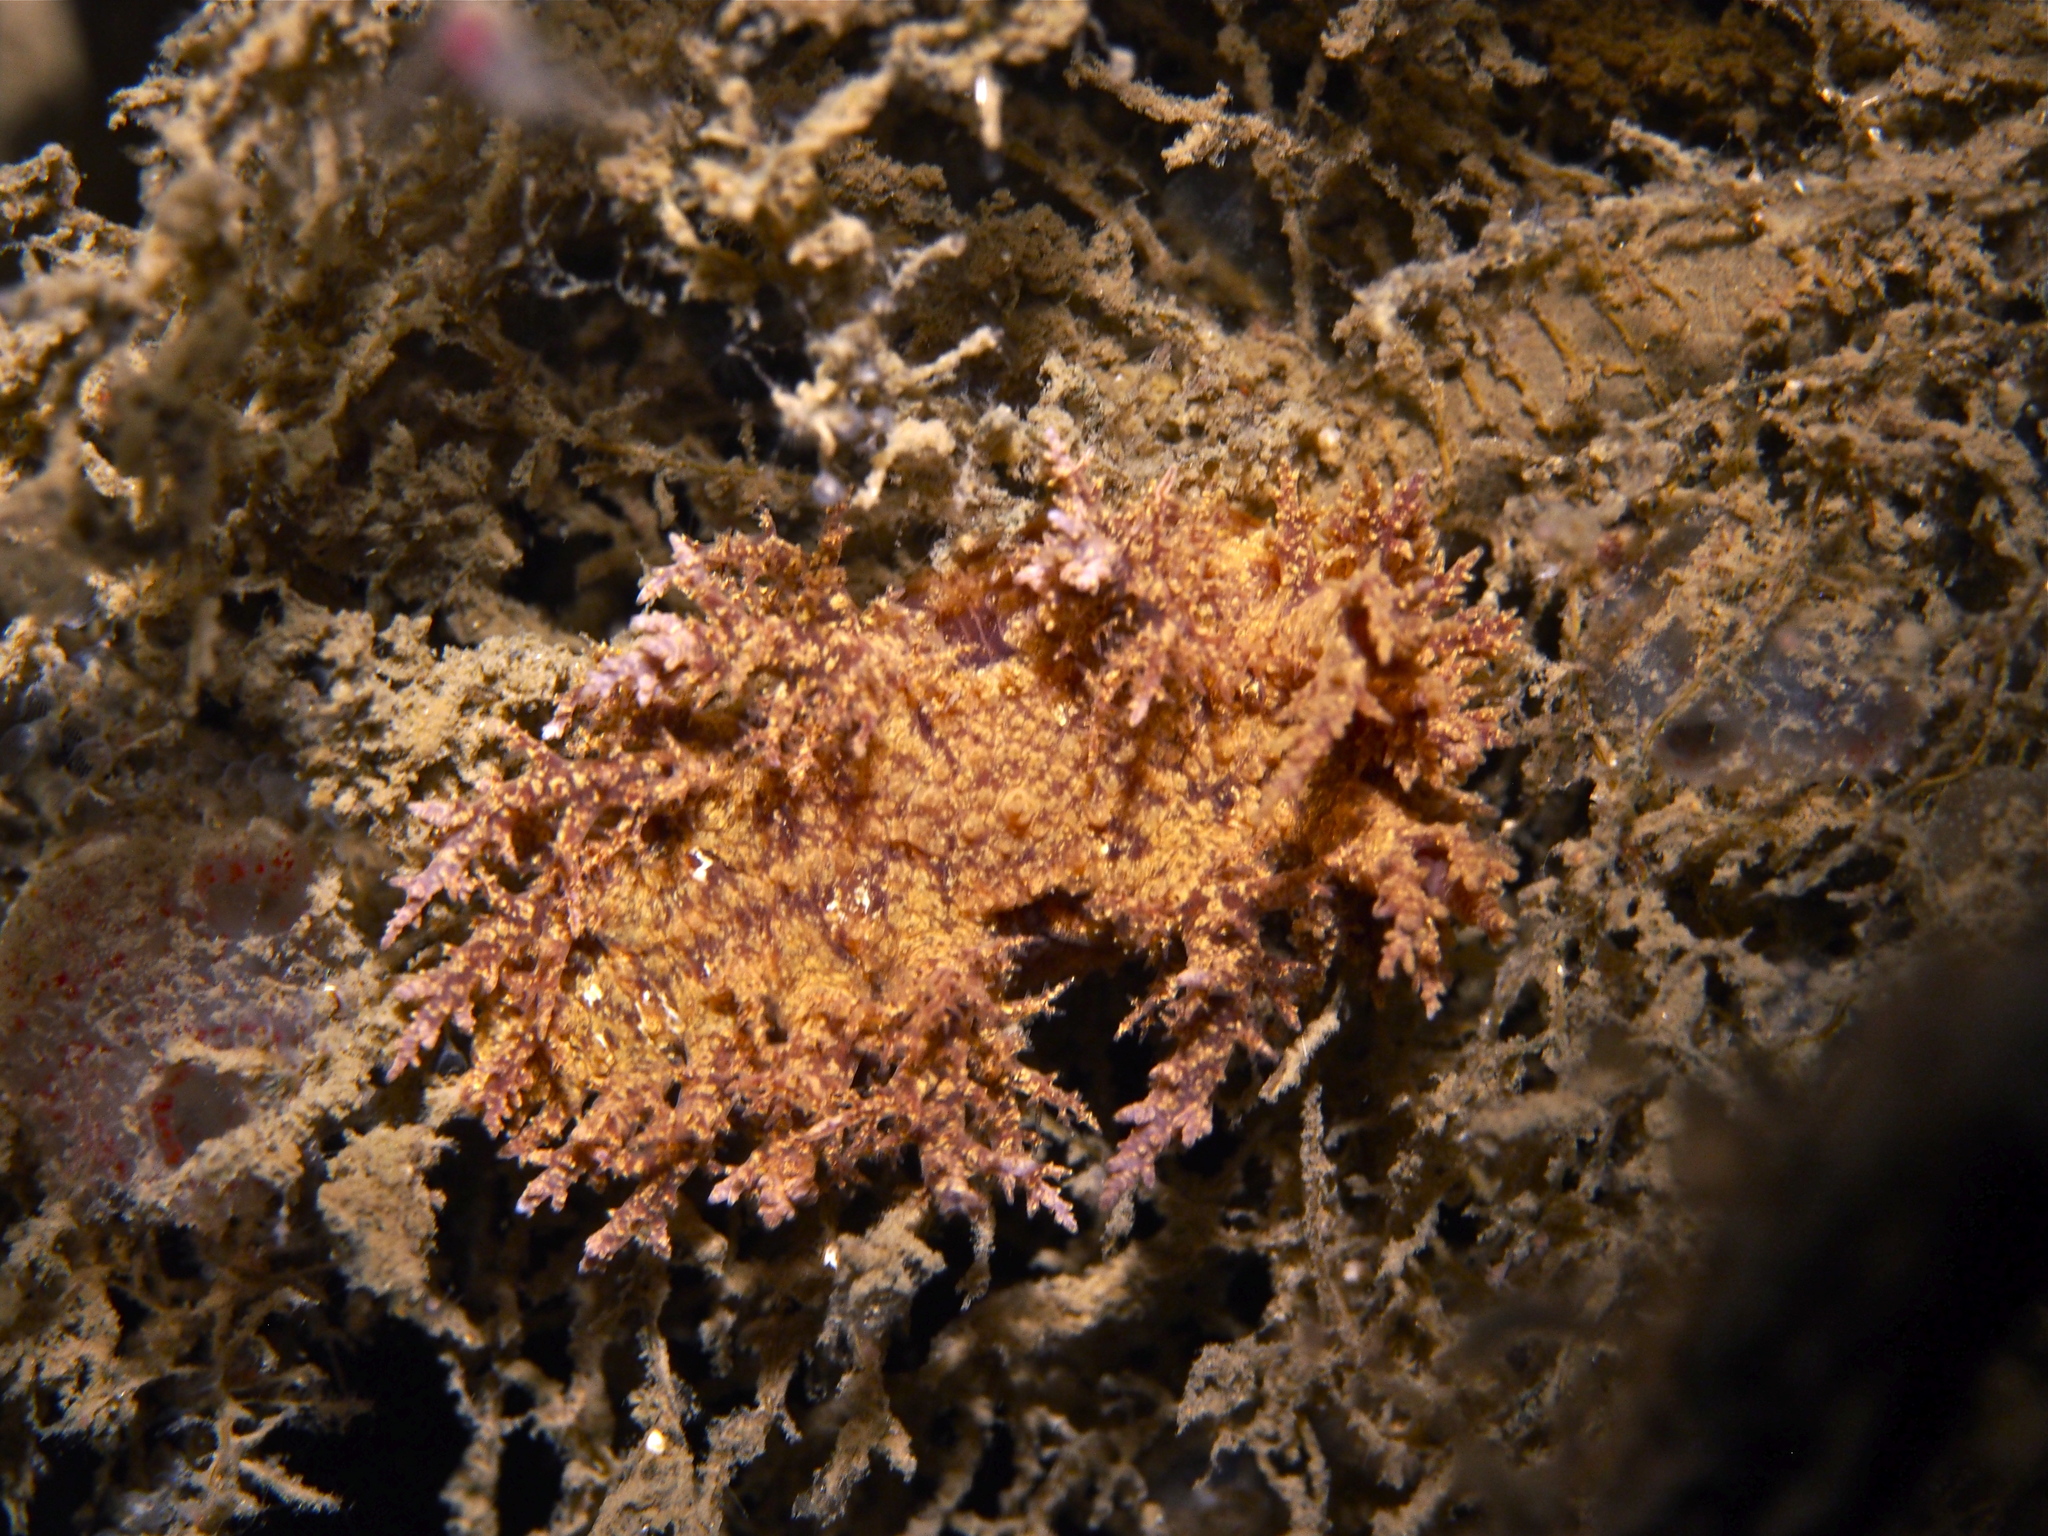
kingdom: Animalia
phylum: Mollusca
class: Gastropoda
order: Nudibranchia
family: Dendronotidae
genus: Dendronotus
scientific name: Dendronotus europaeus
